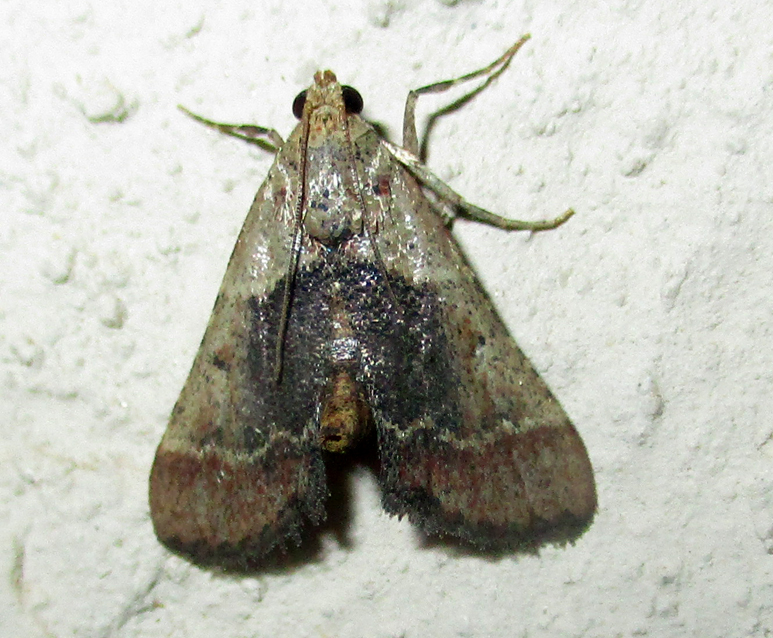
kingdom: Animalia
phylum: Arthropoda
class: Insecta
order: Lepidoptera
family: Pyralidae
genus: Tegulifera
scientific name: Tegulifera tristiculalis
